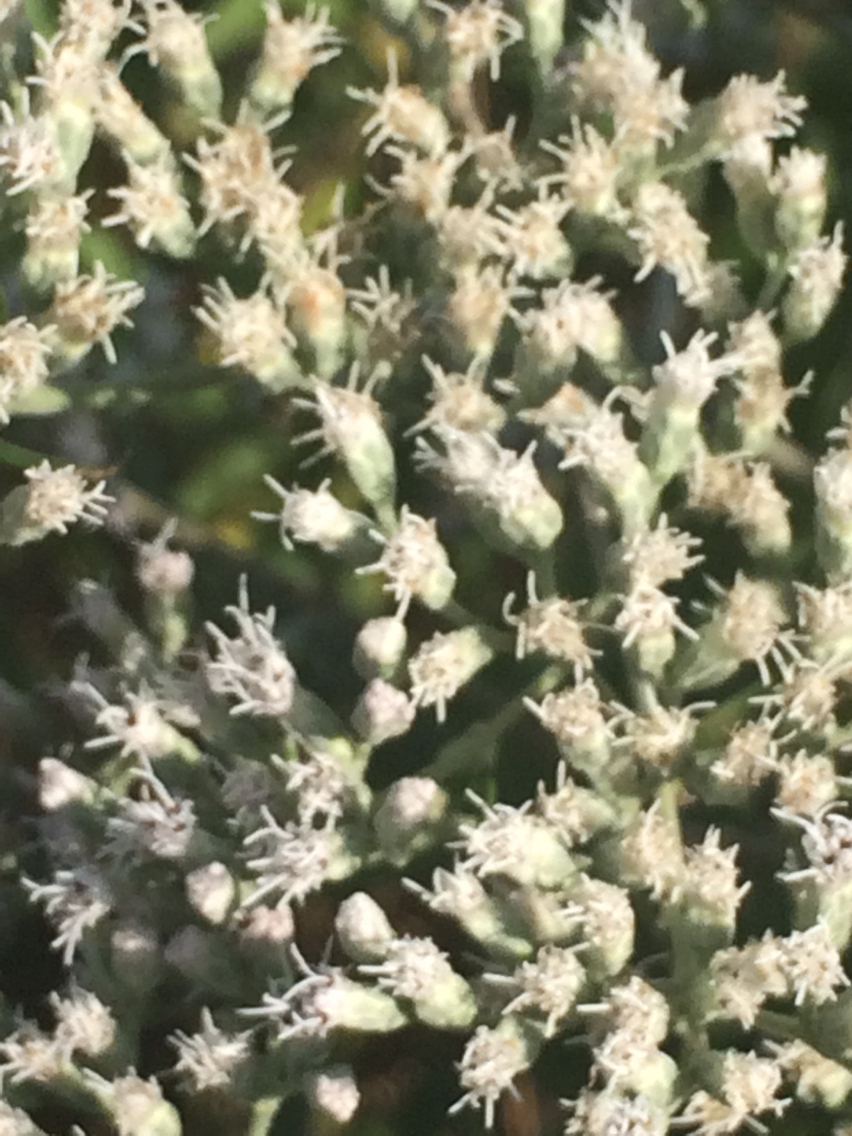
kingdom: Plantae
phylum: Tracheophyta
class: Magnoliopsida
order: Asterales
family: Asteraceae
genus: Eupatorium
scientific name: Eupatorium serotinum
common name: Late boneset
